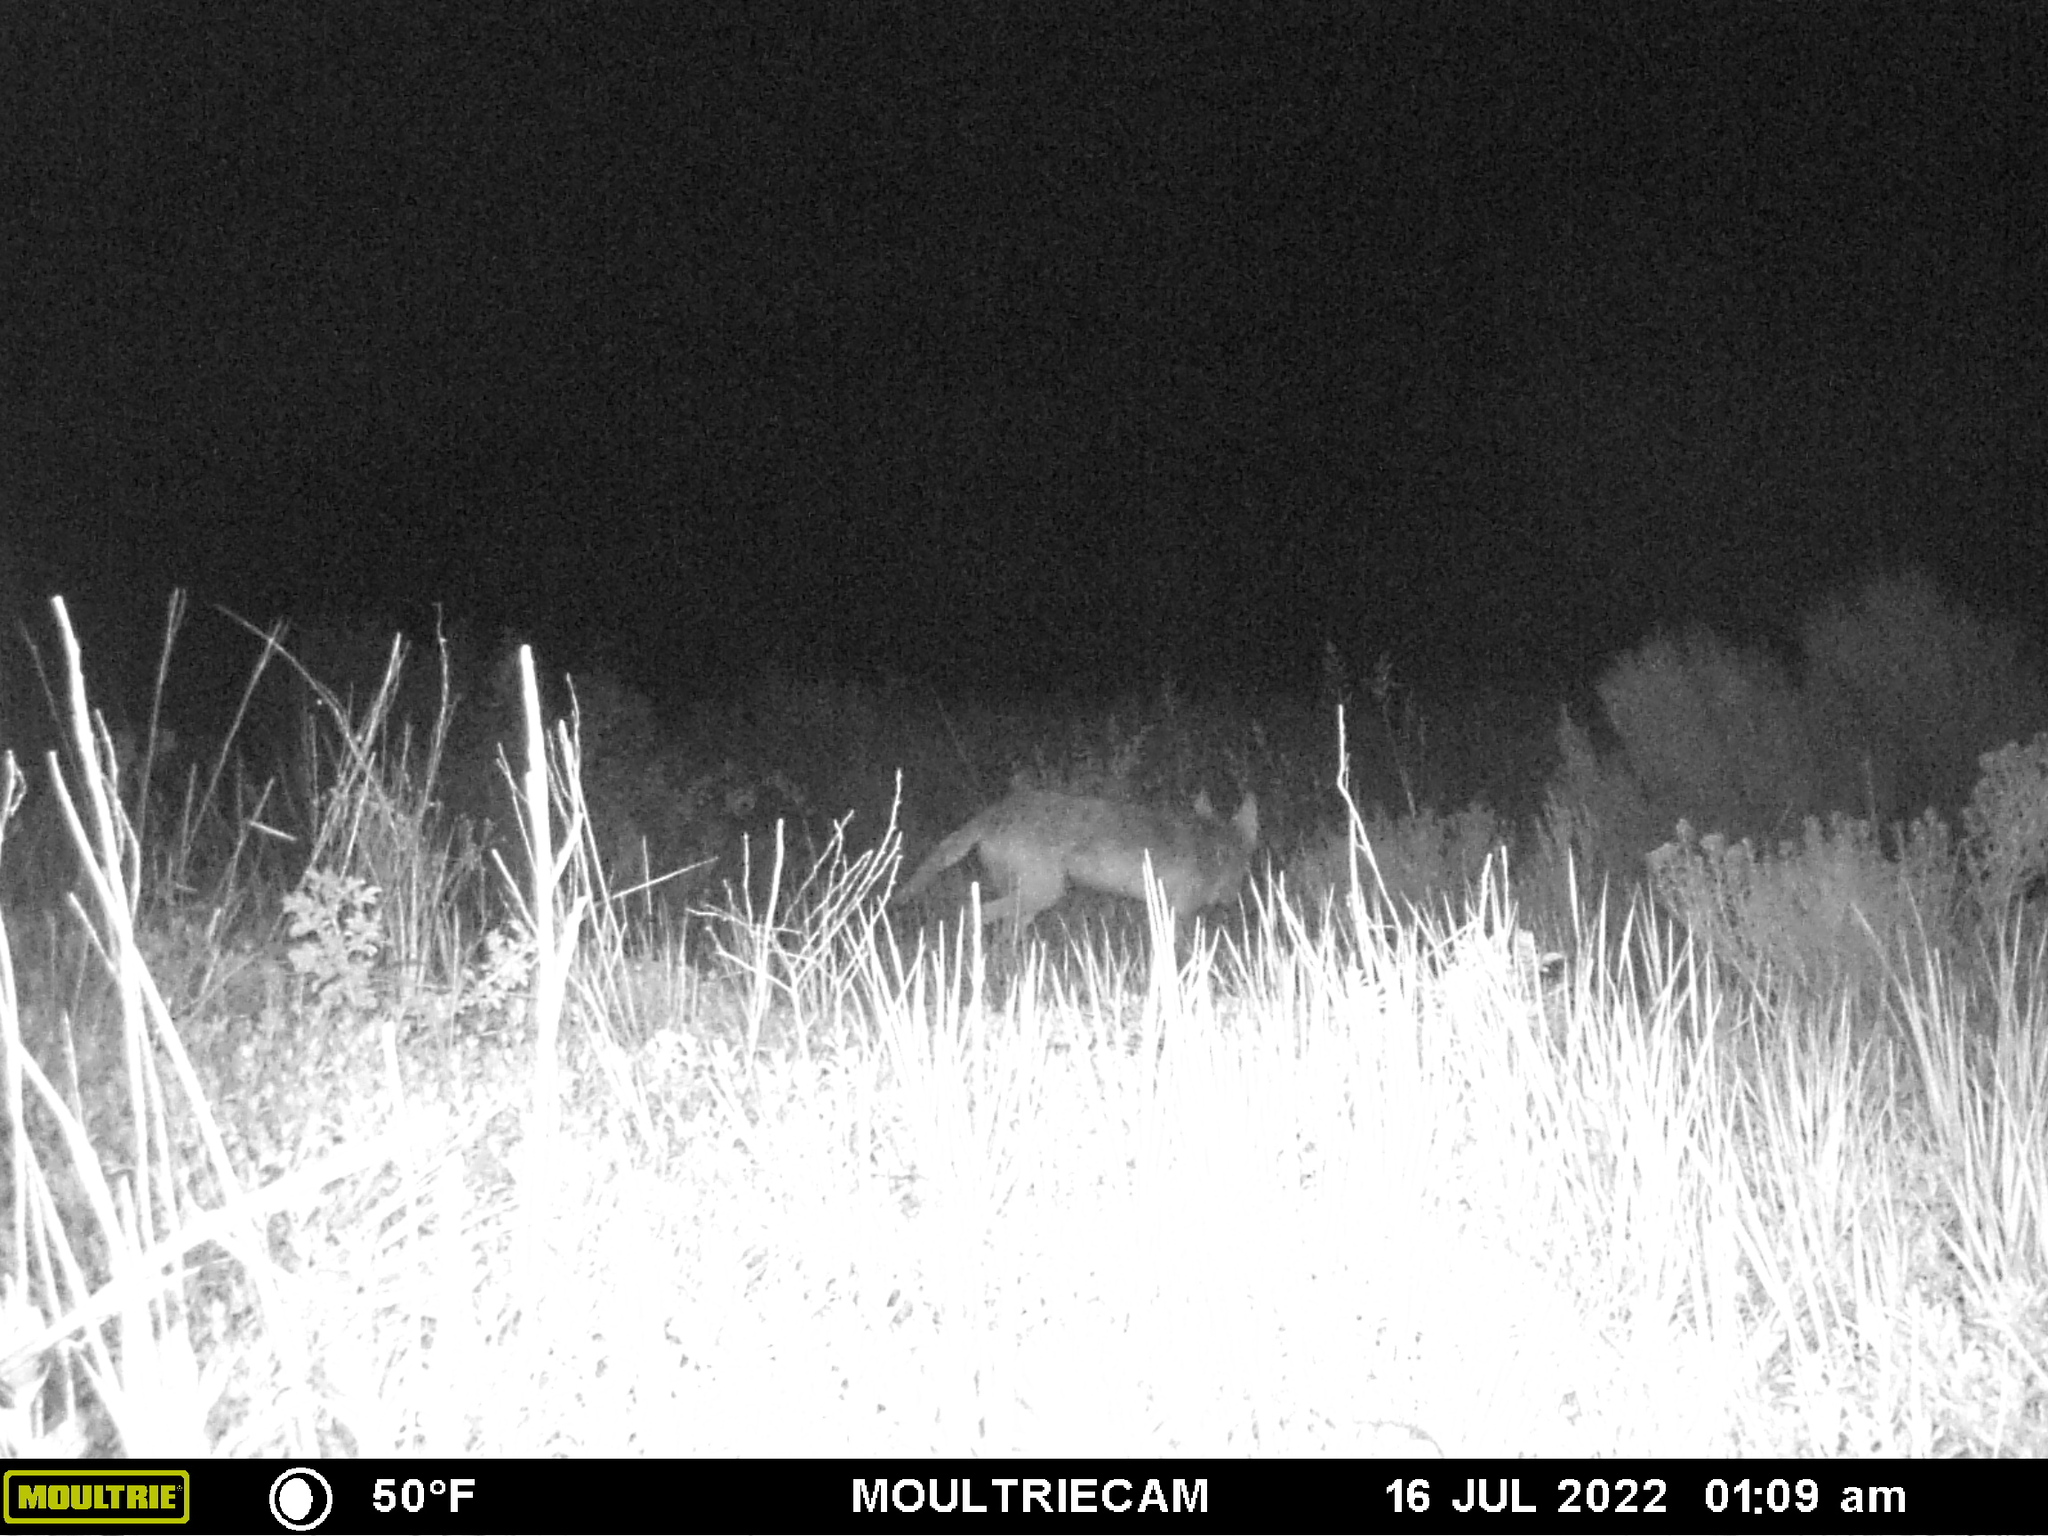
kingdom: Animalia
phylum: Chordata
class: Mammalia
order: Carnivora
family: Canidae
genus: Canis
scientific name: Canis latrans
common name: Coyote
